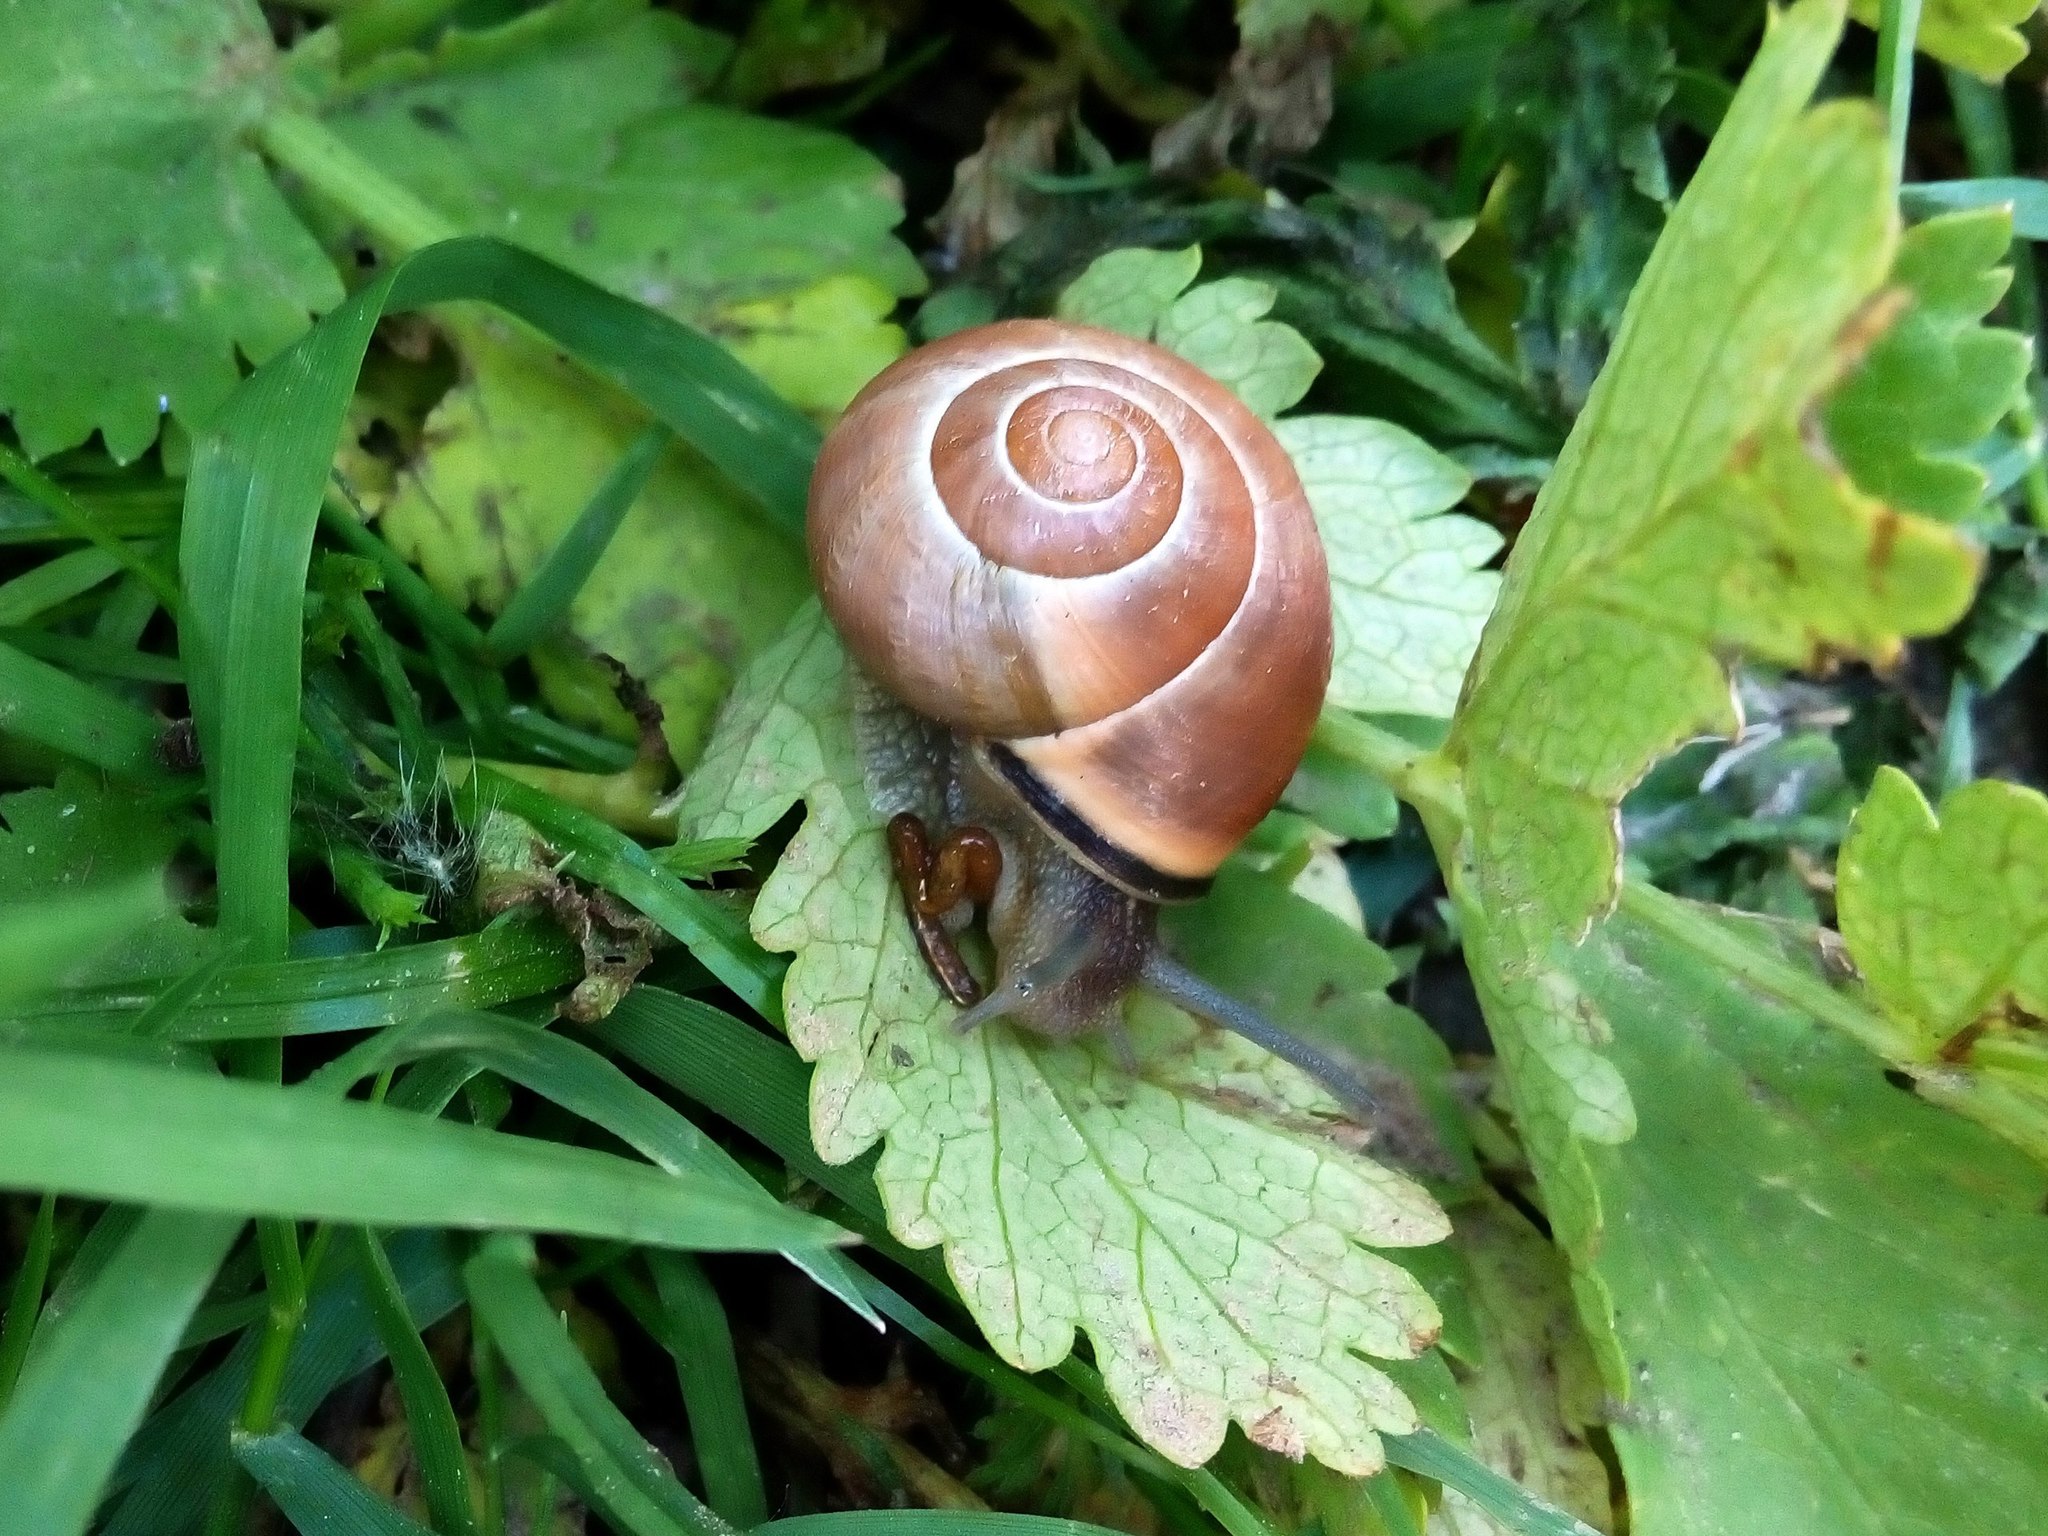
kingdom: Animalia
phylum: Mollusca
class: Gastropoda
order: Stylommatophora
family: Helicidae
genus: Cepaea
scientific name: Cepaea nemoralis
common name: Grovesnail
